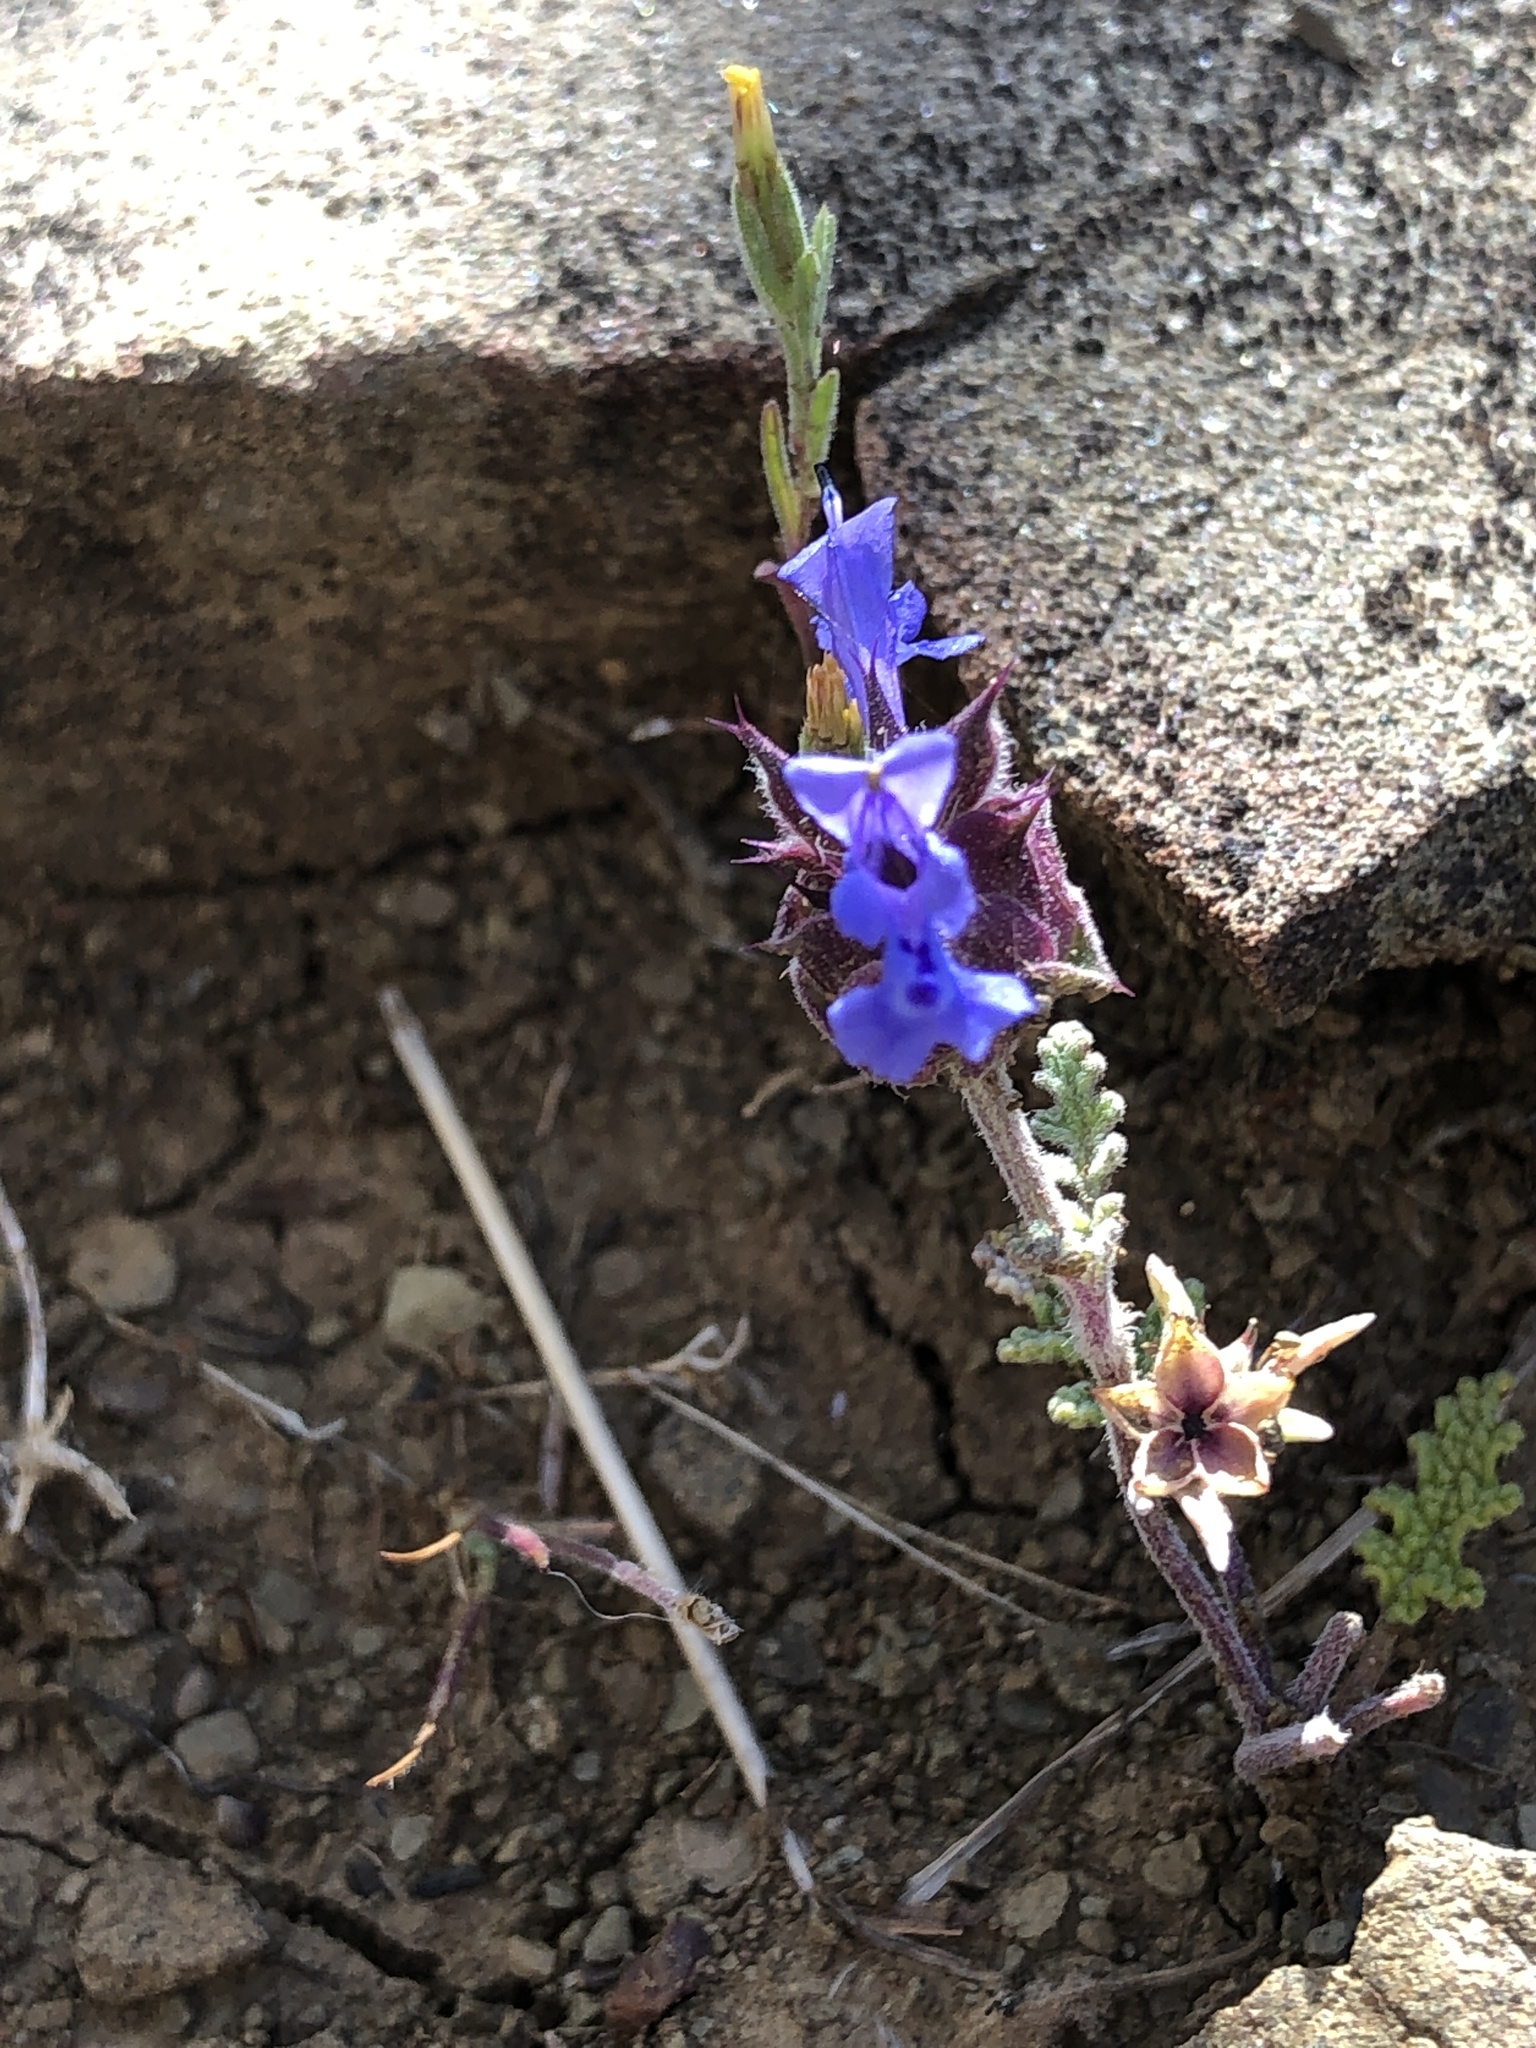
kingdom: Plantae
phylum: Tracheophyta
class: Magnoliopsida
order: Lamiales
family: Lamiaceae
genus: Salvia
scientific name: Salvia columbariae
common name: Chia
